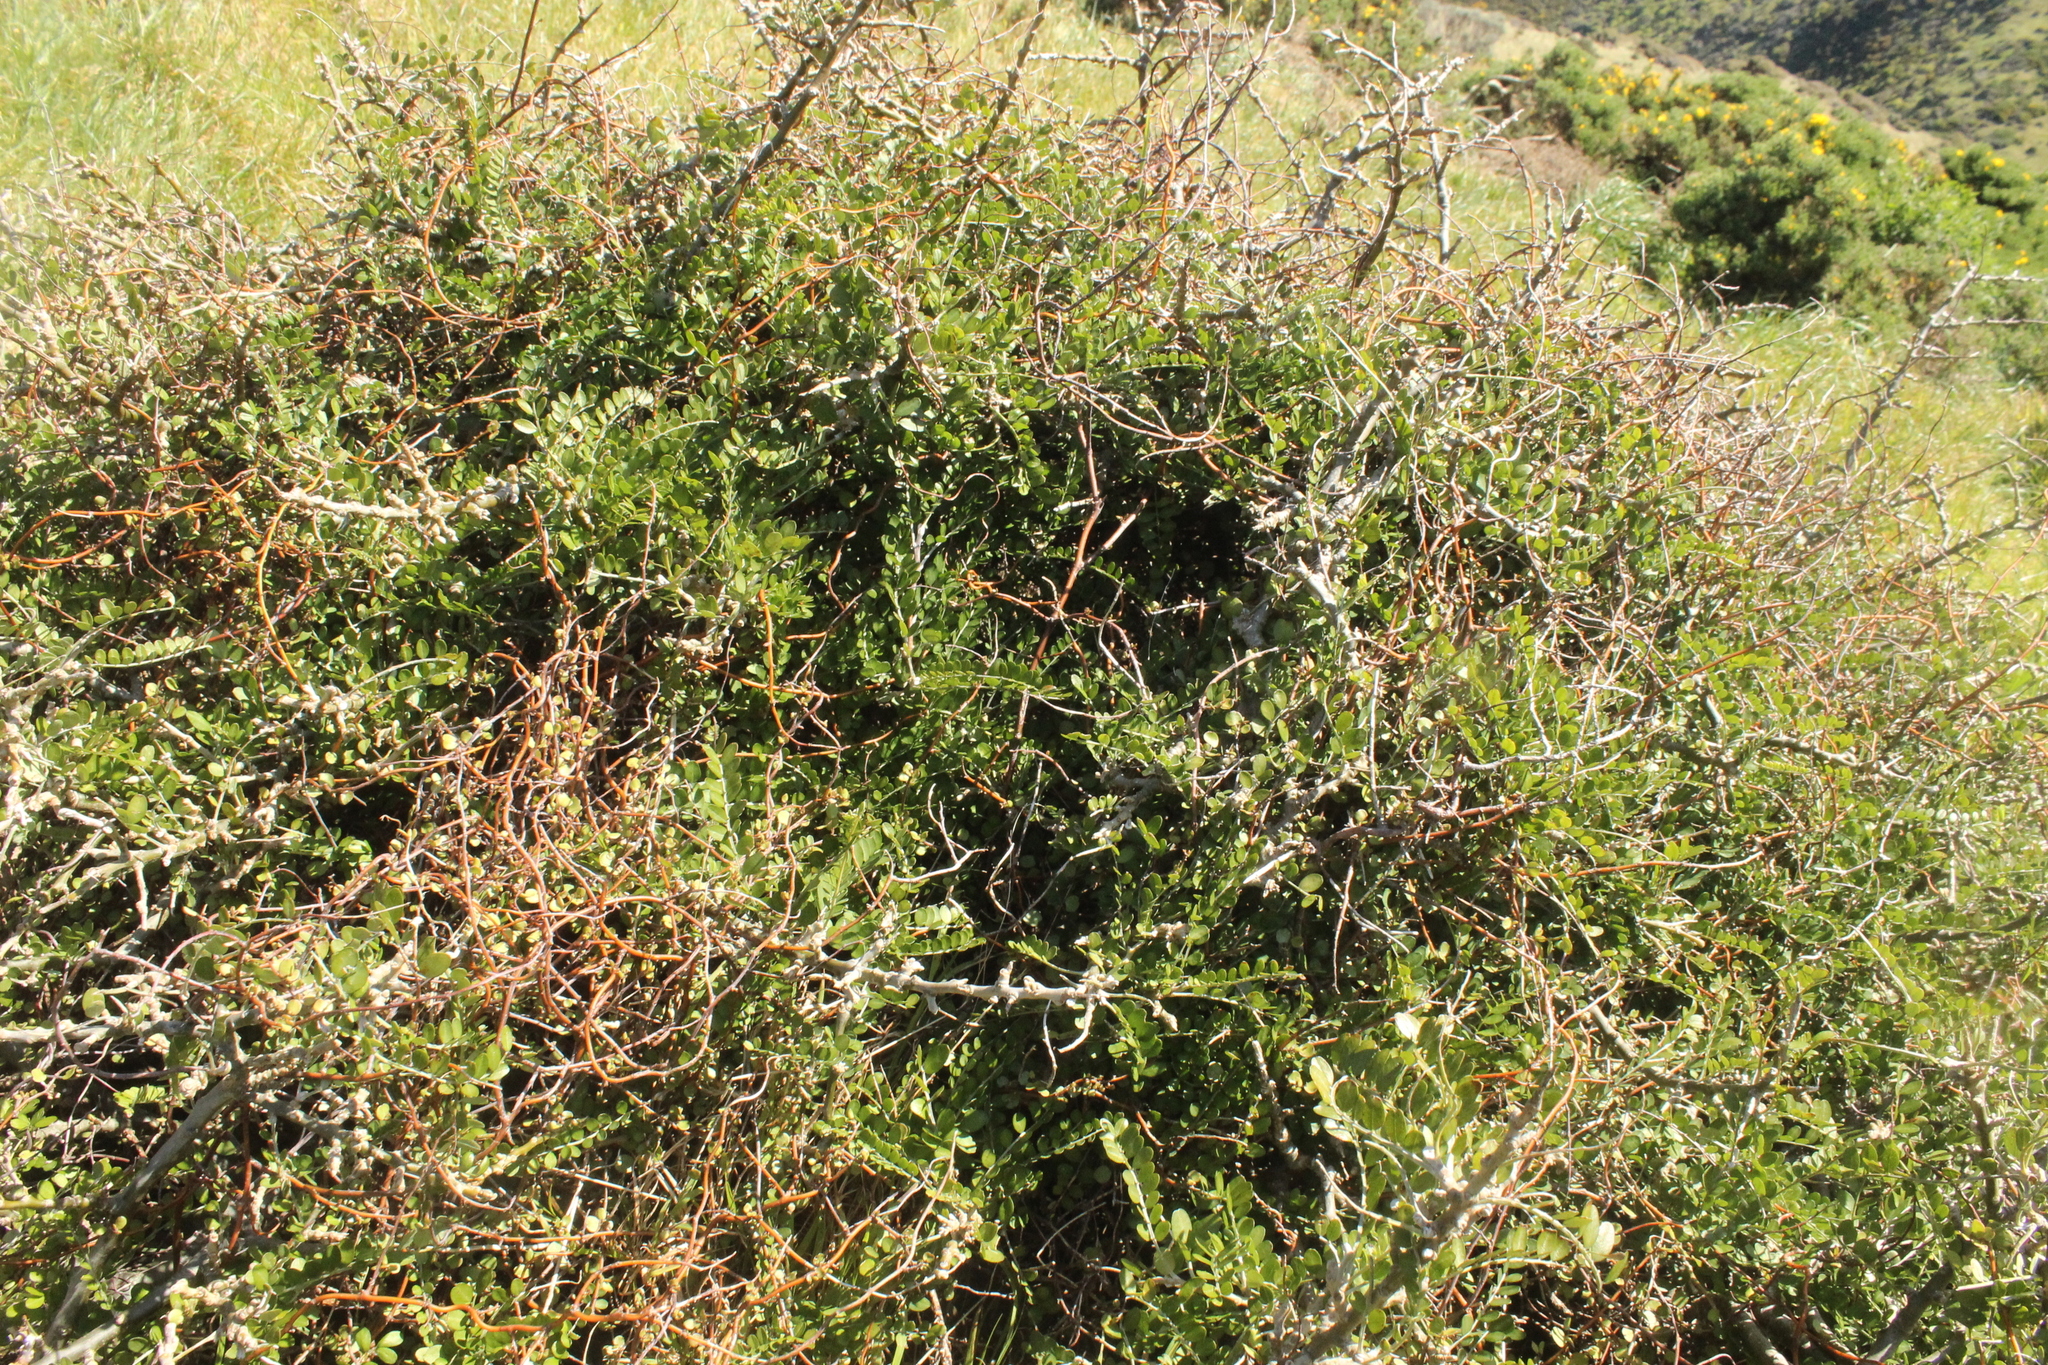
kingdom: Plantae
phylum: Tracheophyta
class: Magnoliopsida
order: Fabales
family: Fabaceae
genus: Sophora
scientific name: Sophora molloyi
